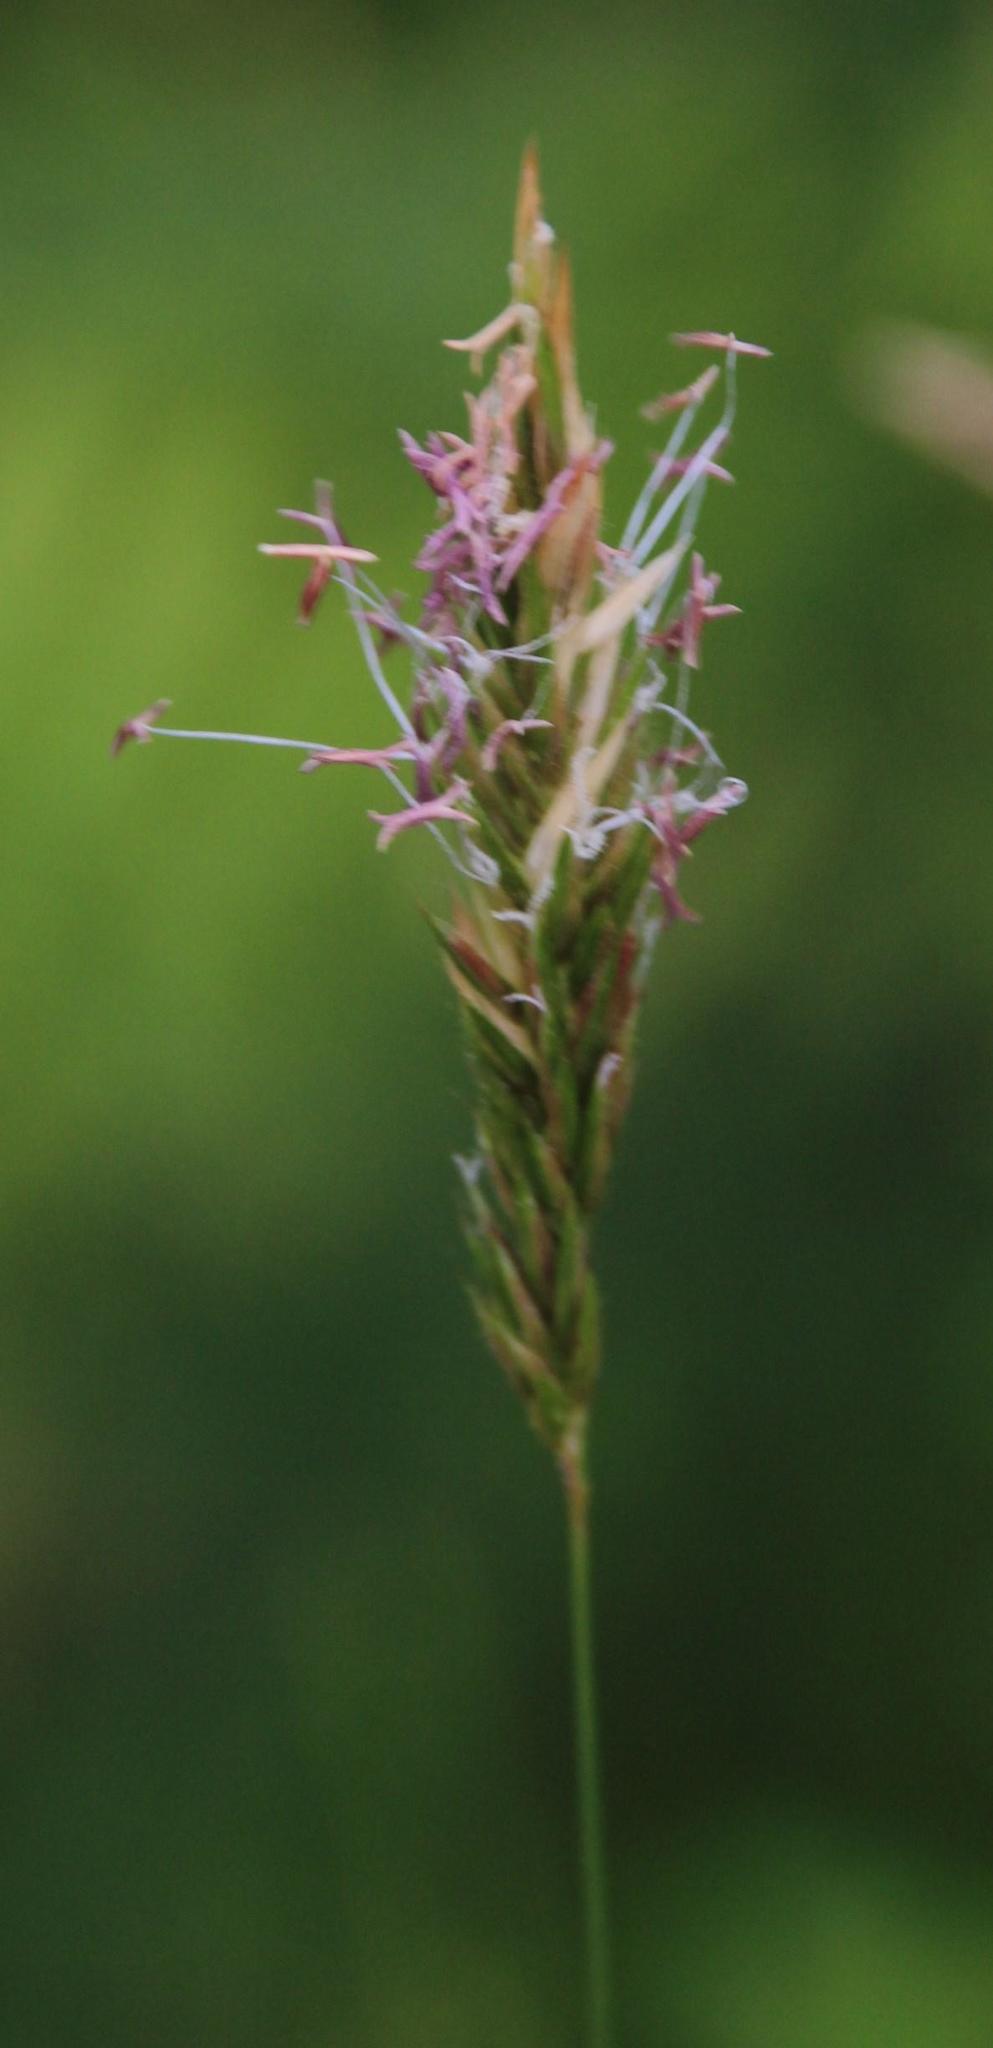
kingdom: Plantae
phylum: Tracheophyta
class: Liliopsida
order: Poales
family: Poaceae
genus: Anthoxanthum
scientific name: Anthoxanthum odoratum
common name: Sweet vernalgrass
